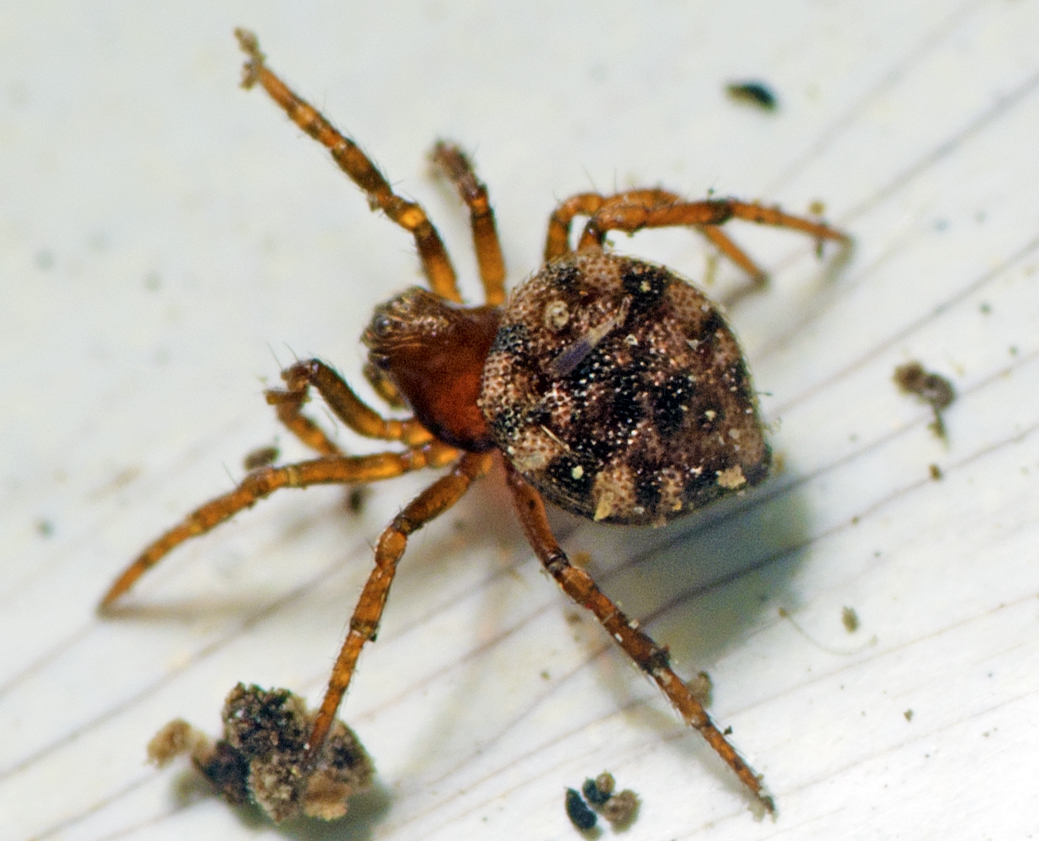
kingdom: Animalia
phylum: Arthropoda
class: Arachnida
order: Araneae
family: Theridiidae
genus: Euryopis
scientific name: Euryopis petricola
